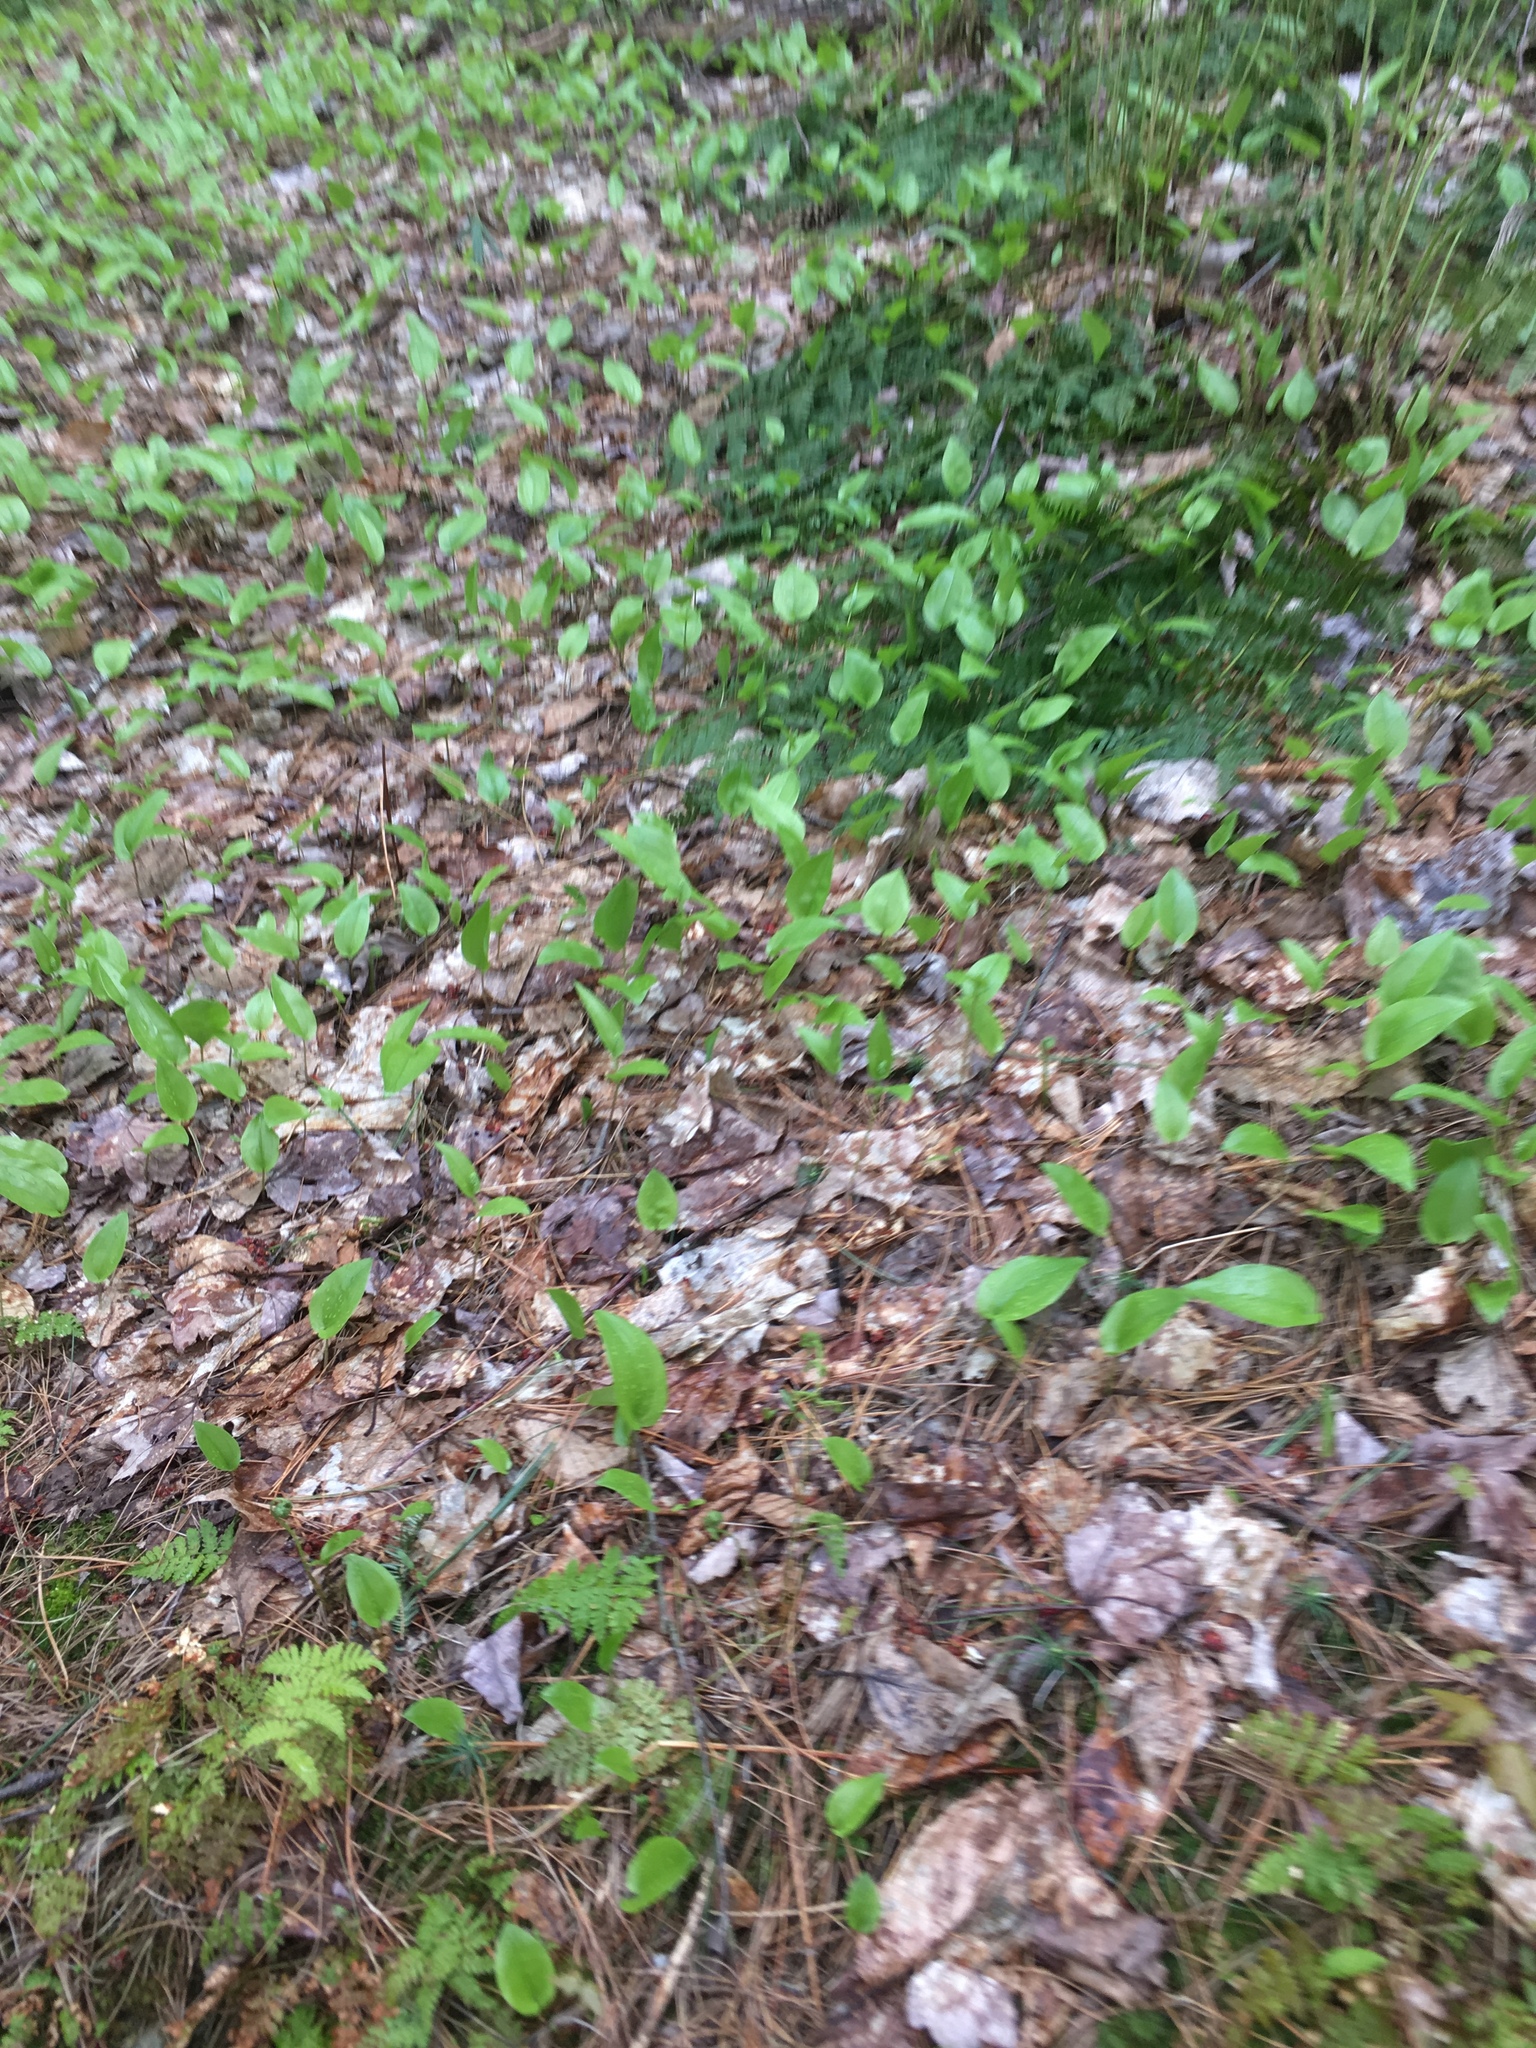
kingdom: Plantae
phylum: Tracheophyta
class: Liliopsida
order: Asparagales
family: Asparagaceae
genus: Maianthemum
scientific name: Maianthemum canadense
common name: False lily-of-the-valley
